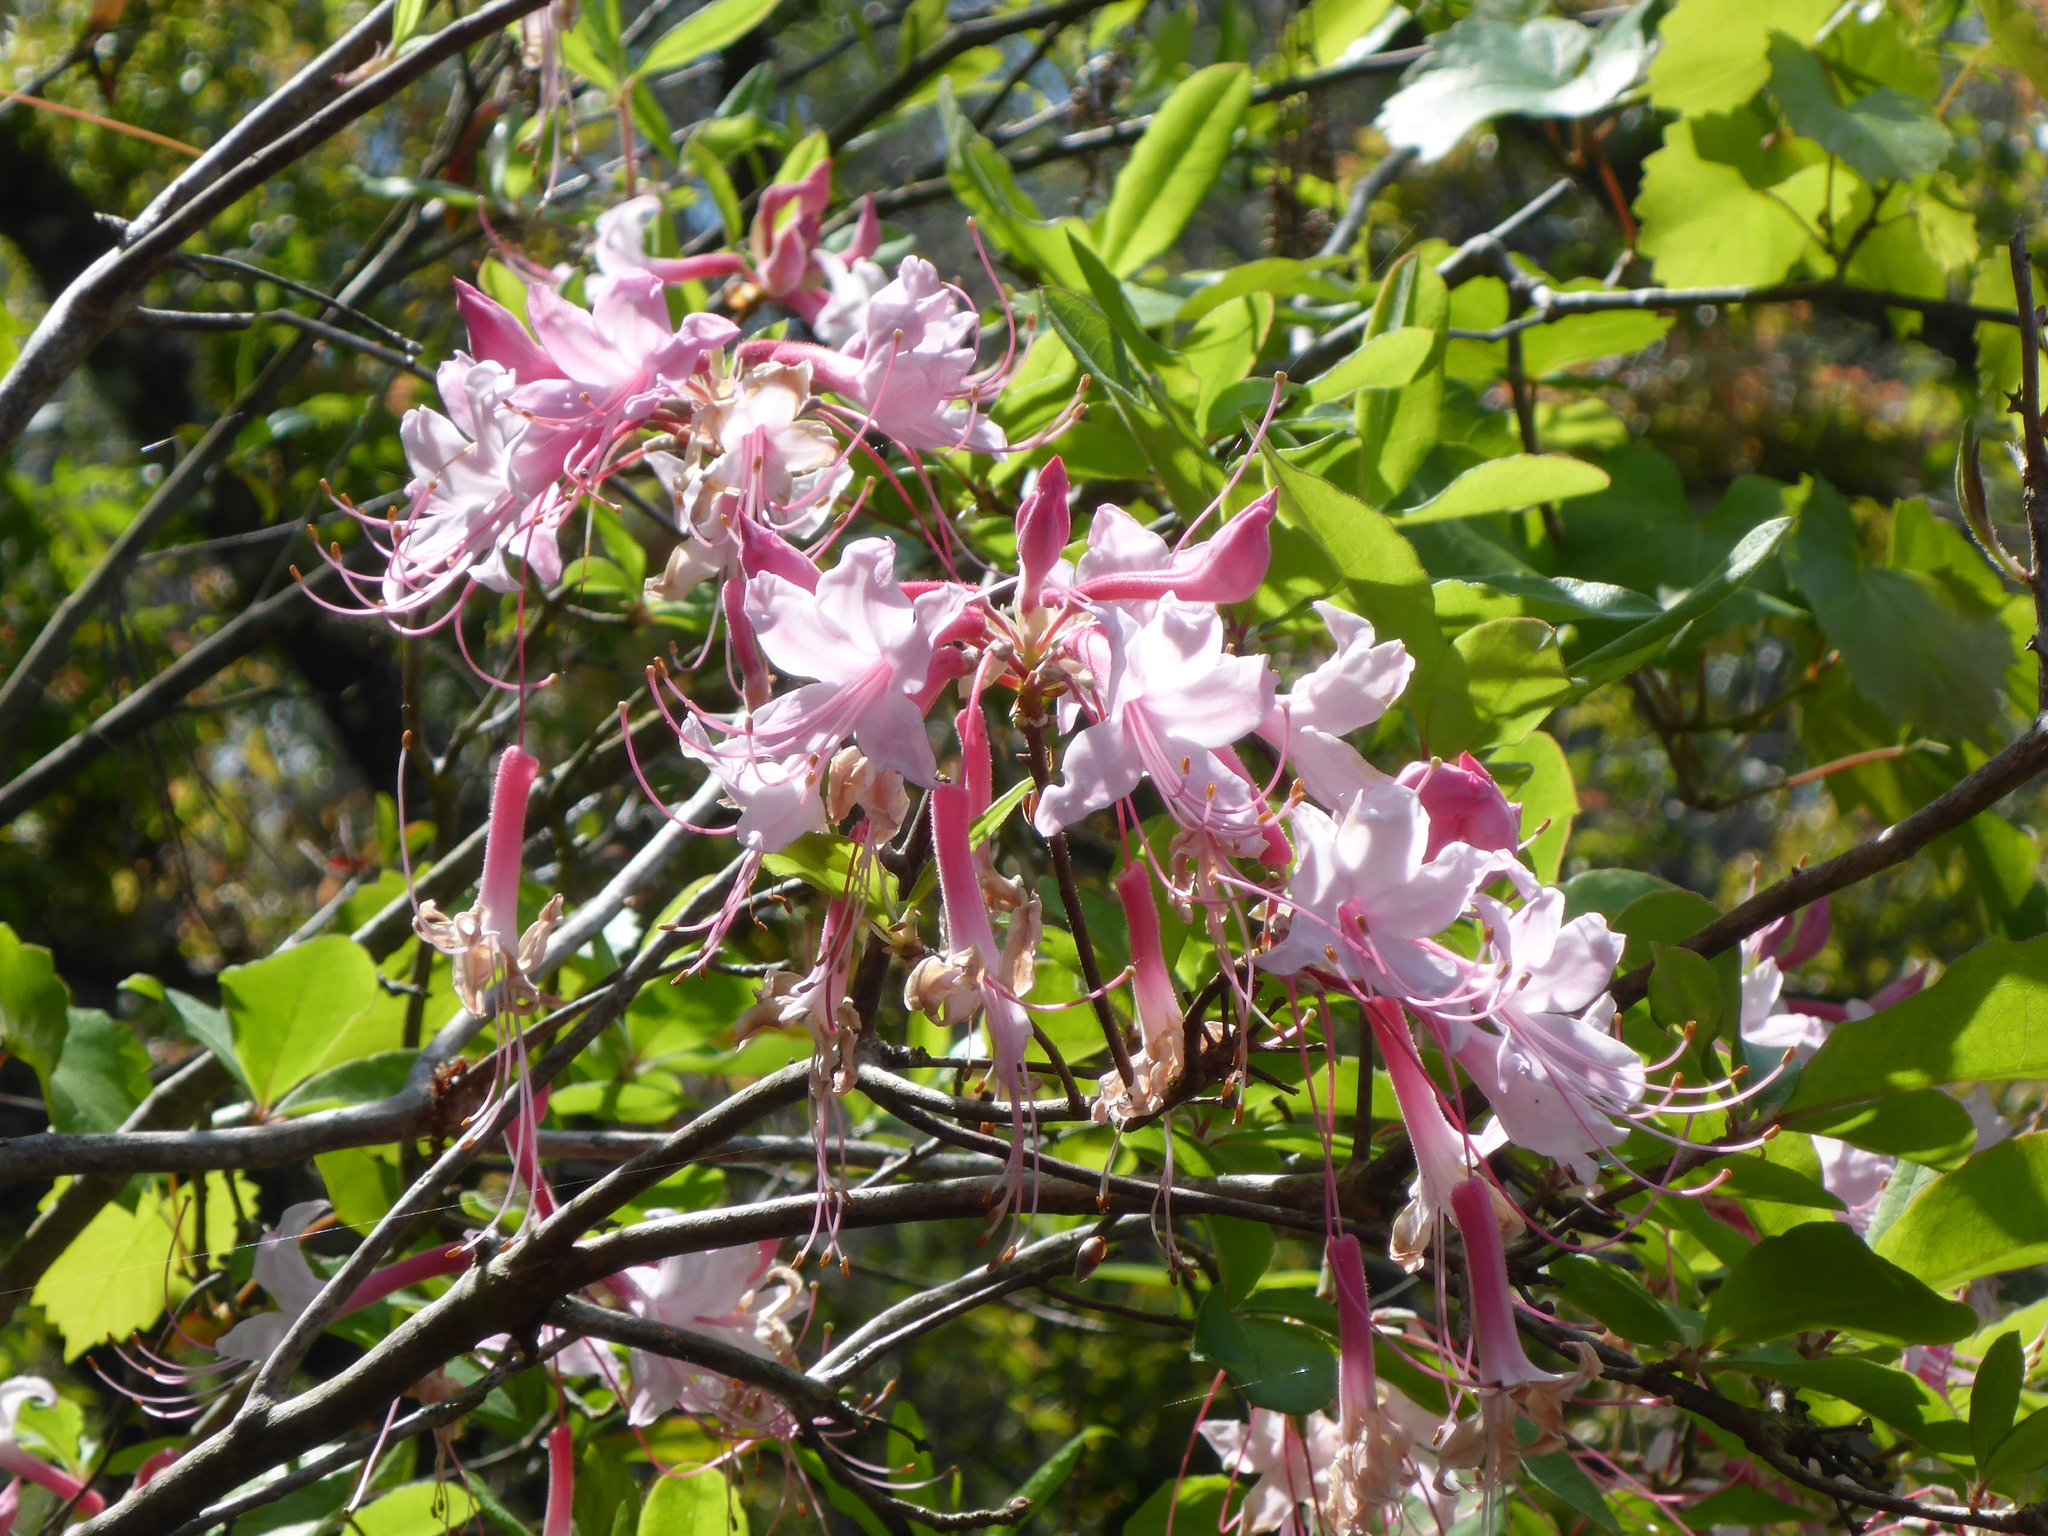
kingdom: Plantae
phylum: Tracheophyta
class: Magnoliopsida
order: Ericales
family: Ericaceae
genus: Rhododendron
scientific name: Rhododendron canescens
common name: Mountain azalea
